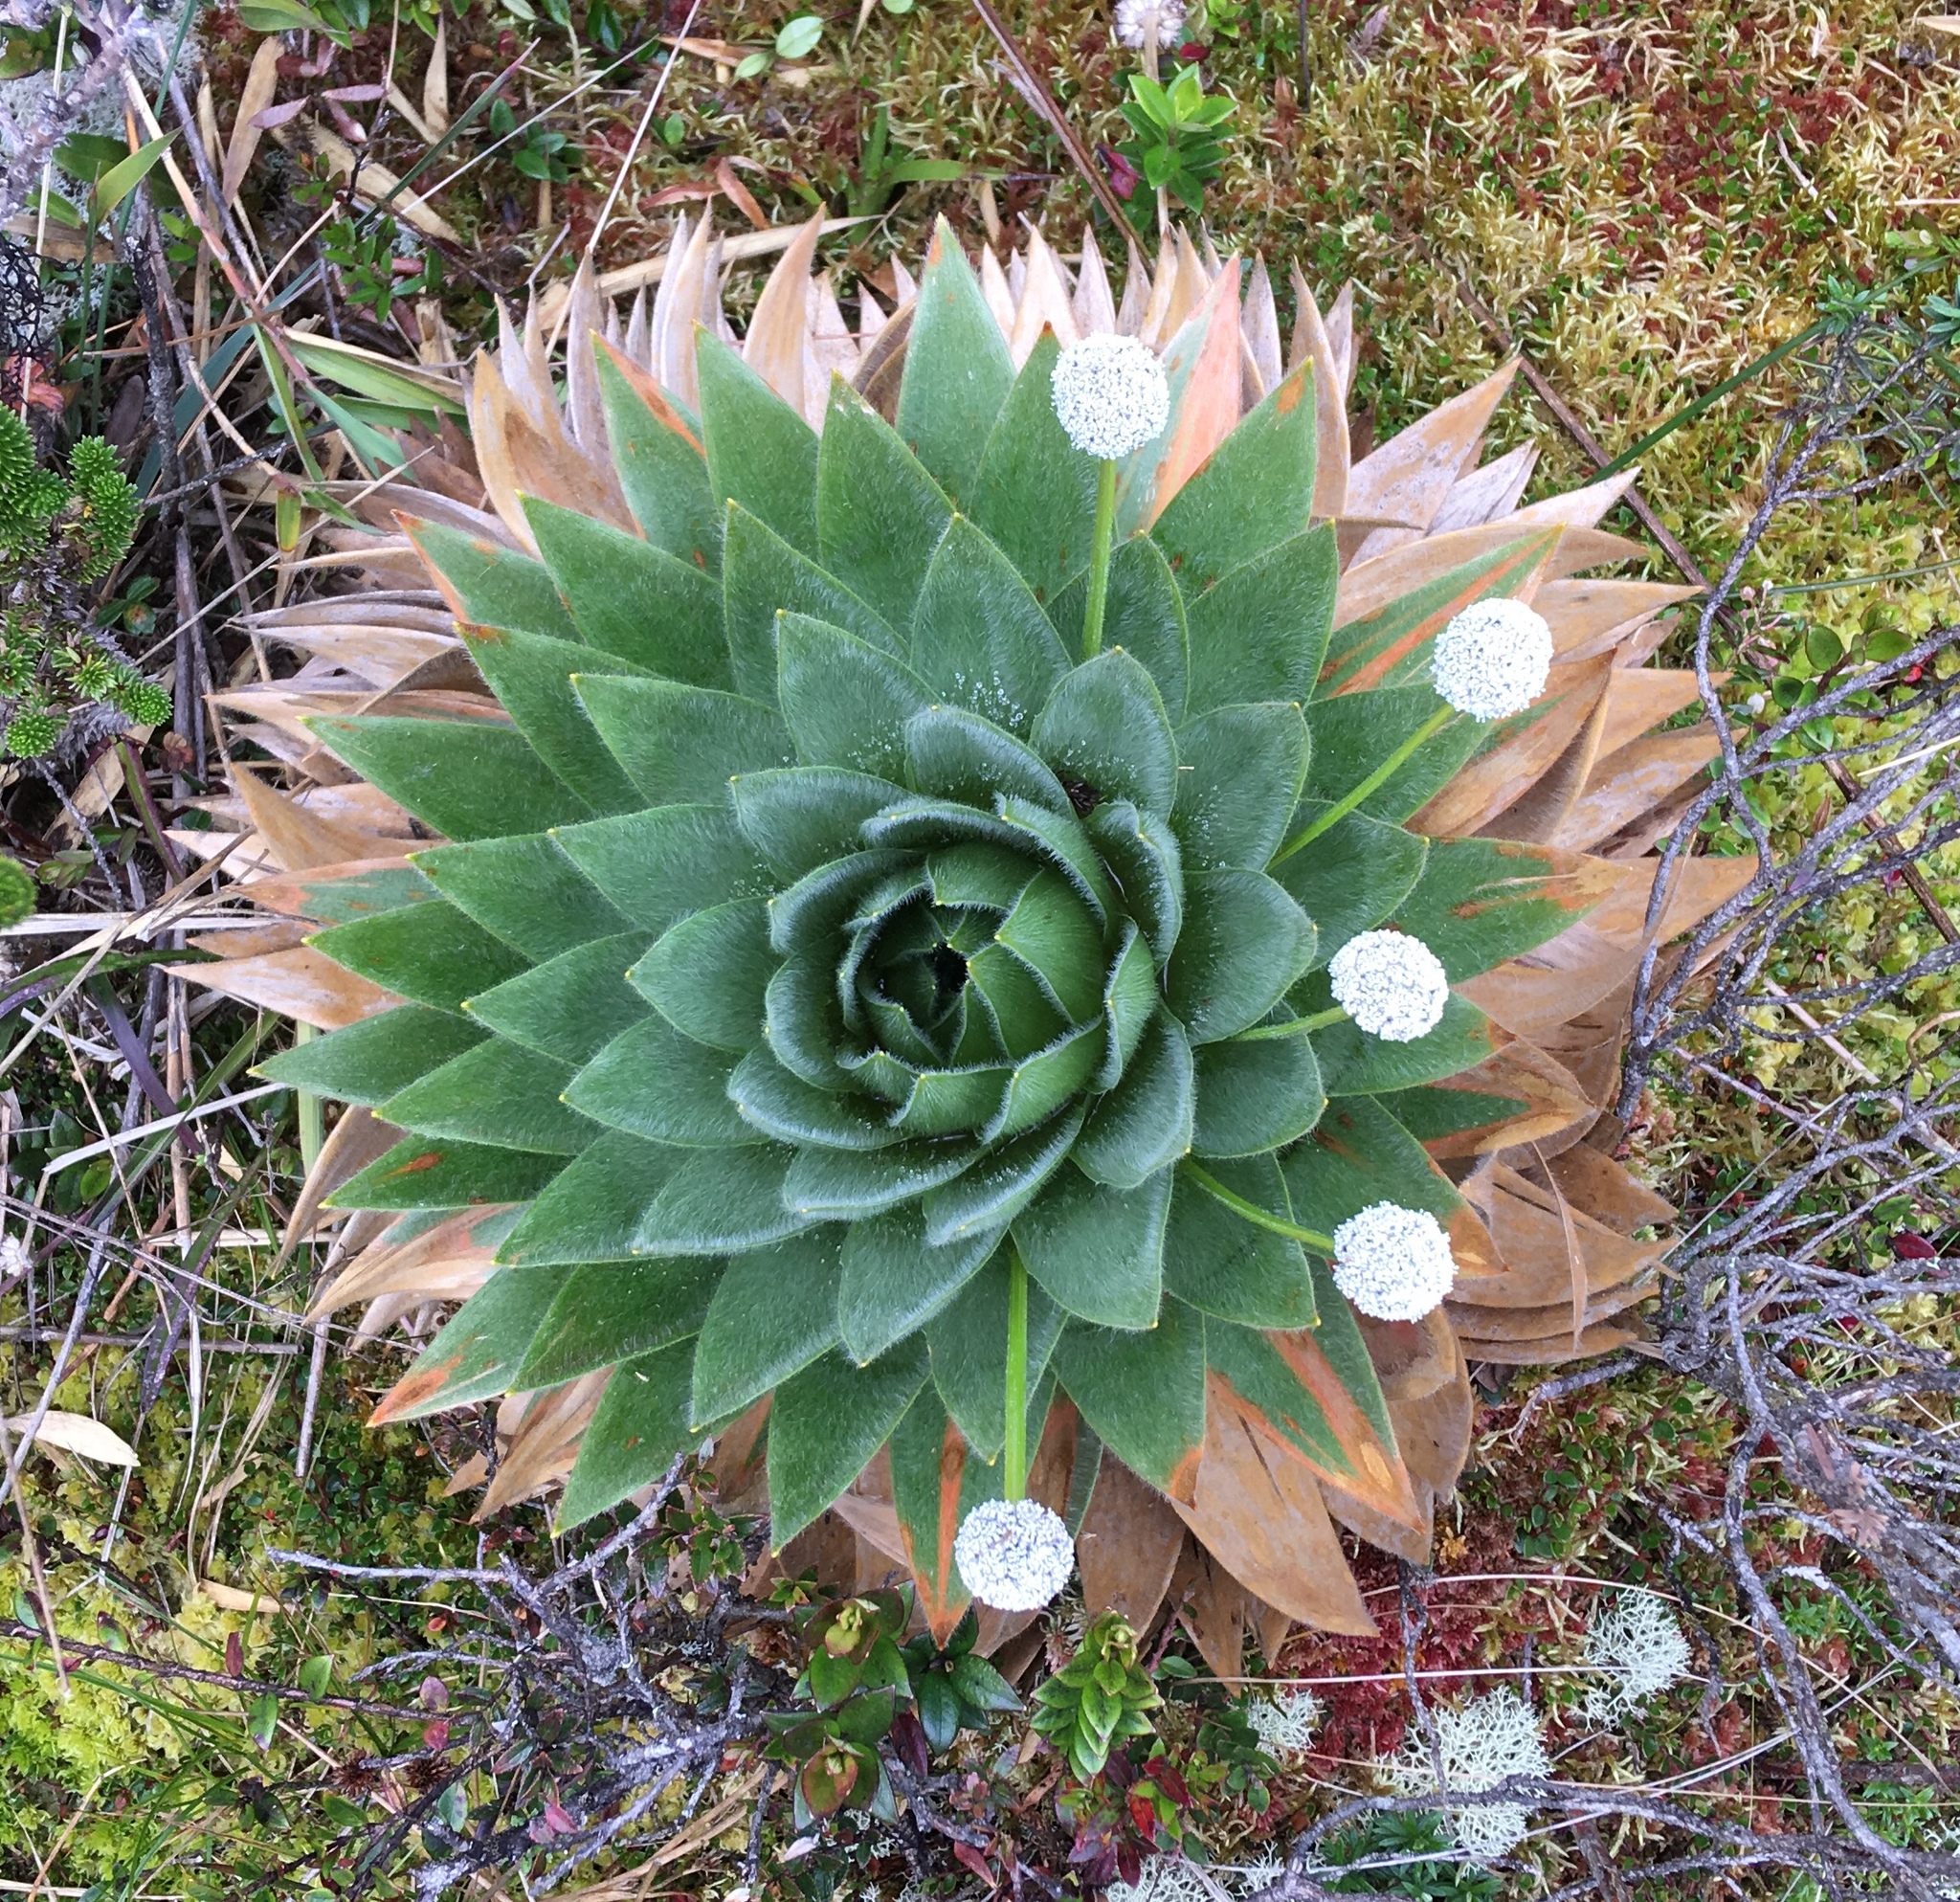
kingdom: Plantae
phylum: Tracheophyta
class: Liliopsida
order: Poales
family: Eriocaulaceae
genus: Paepalanthus
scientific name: Paepalanthus alpinus
